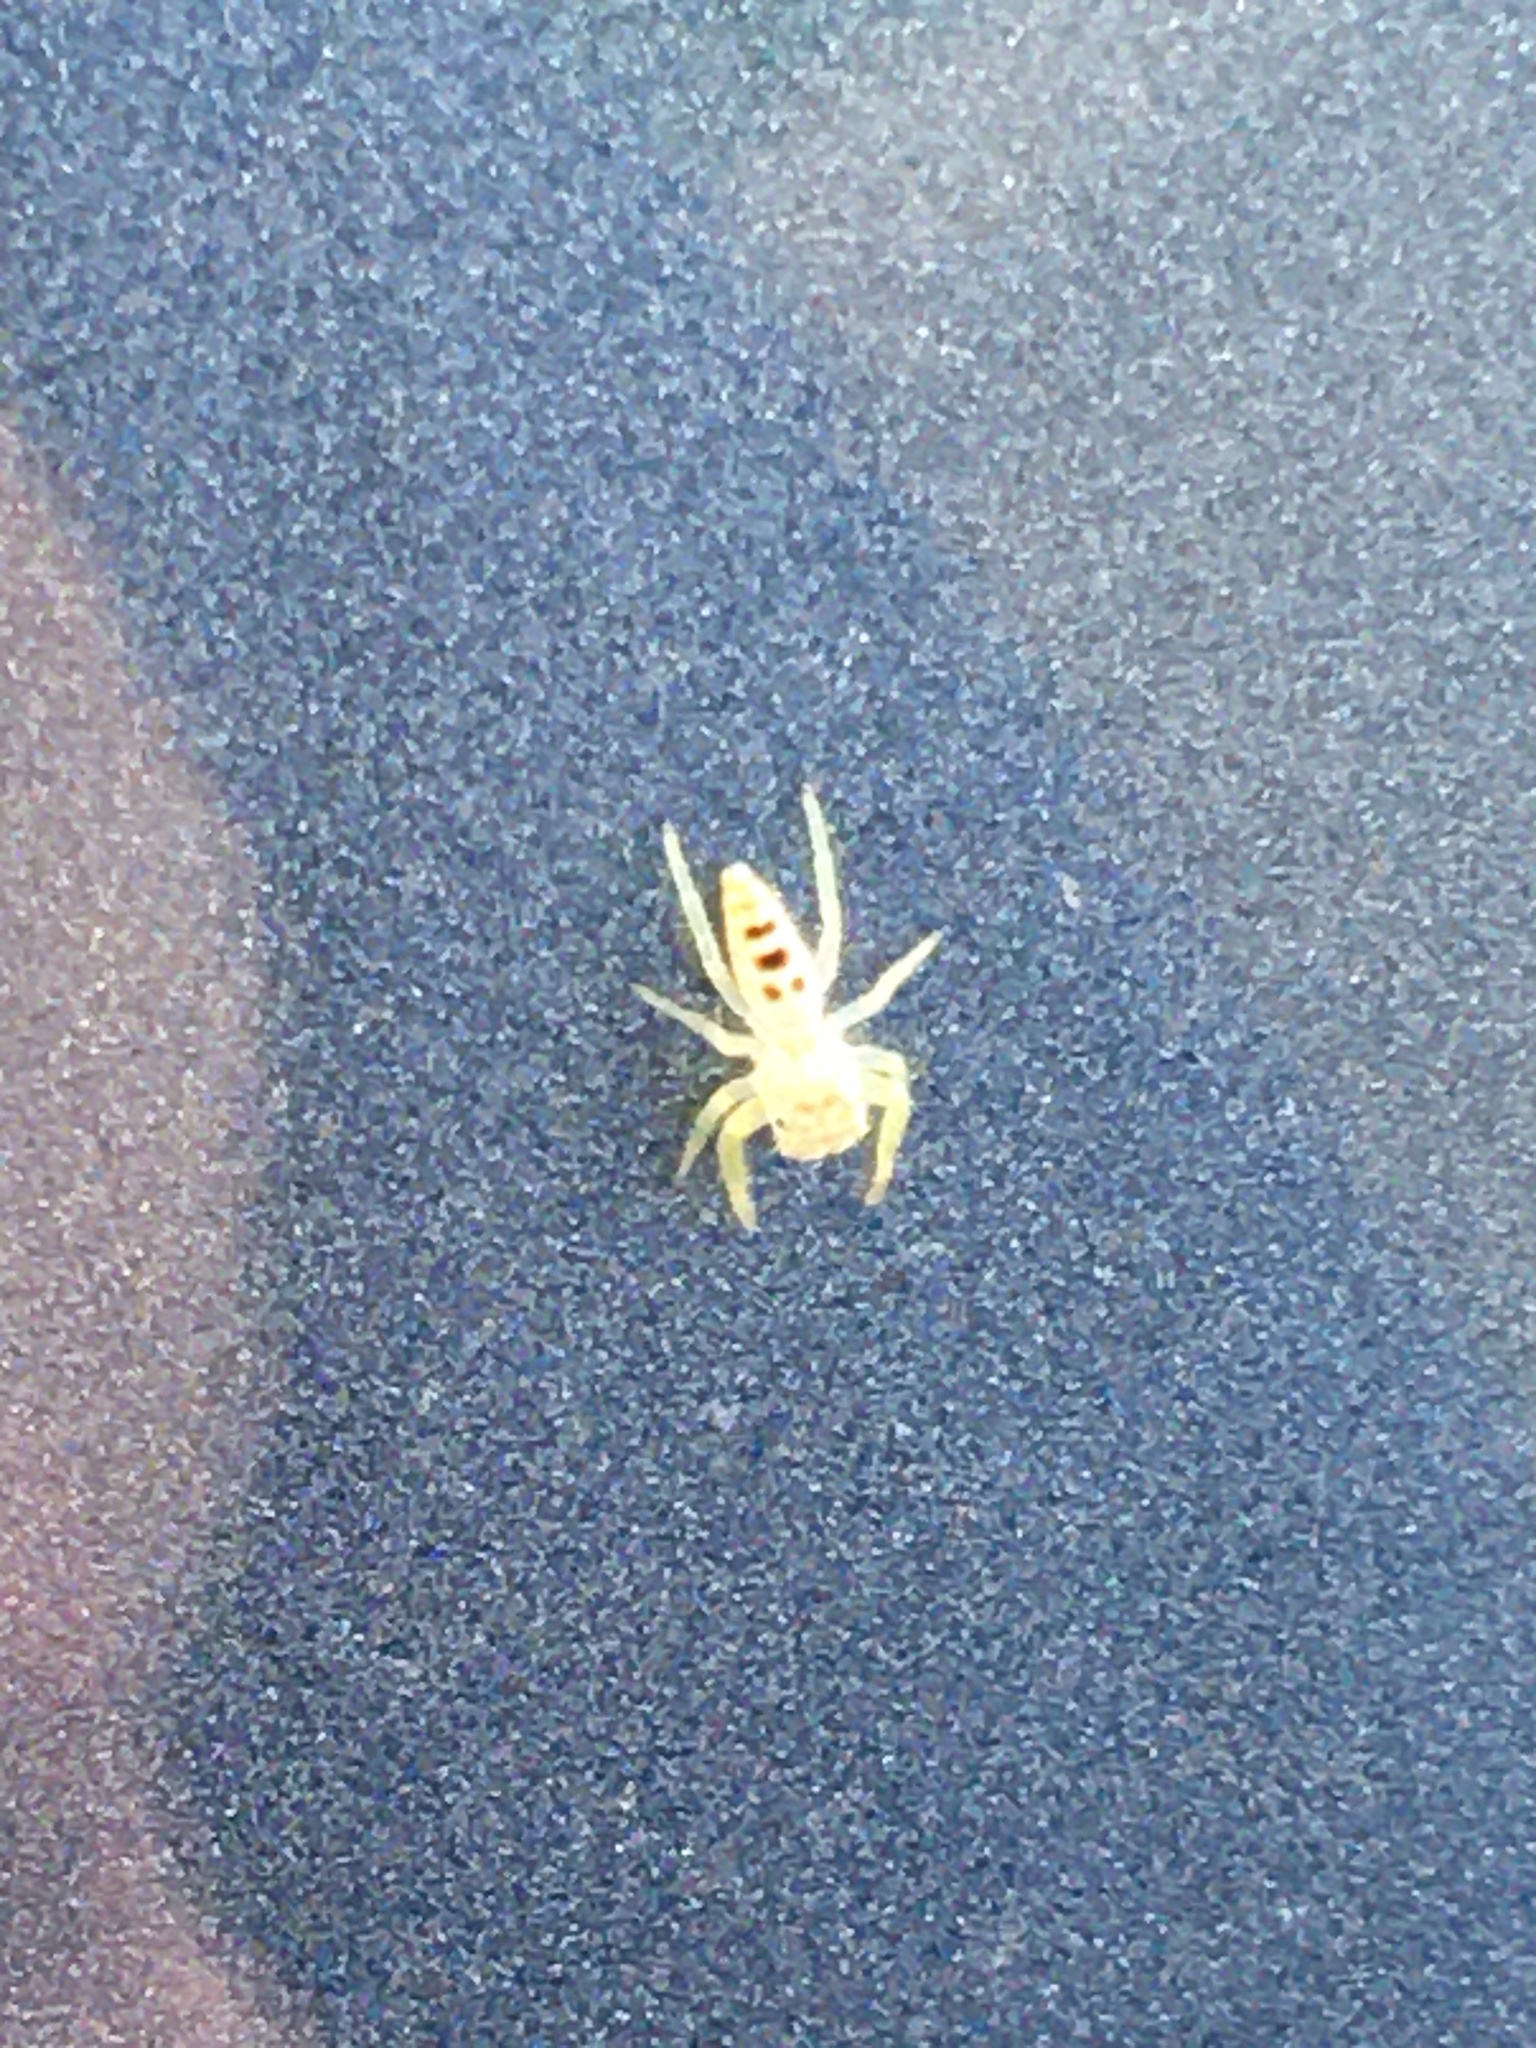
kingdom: Animalia
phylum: Arthropoda
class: Arachnida
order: Araneae
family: Salticidae
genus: Hentzia
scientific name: Hentzia mitrata
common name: White-jawed jumping spider
